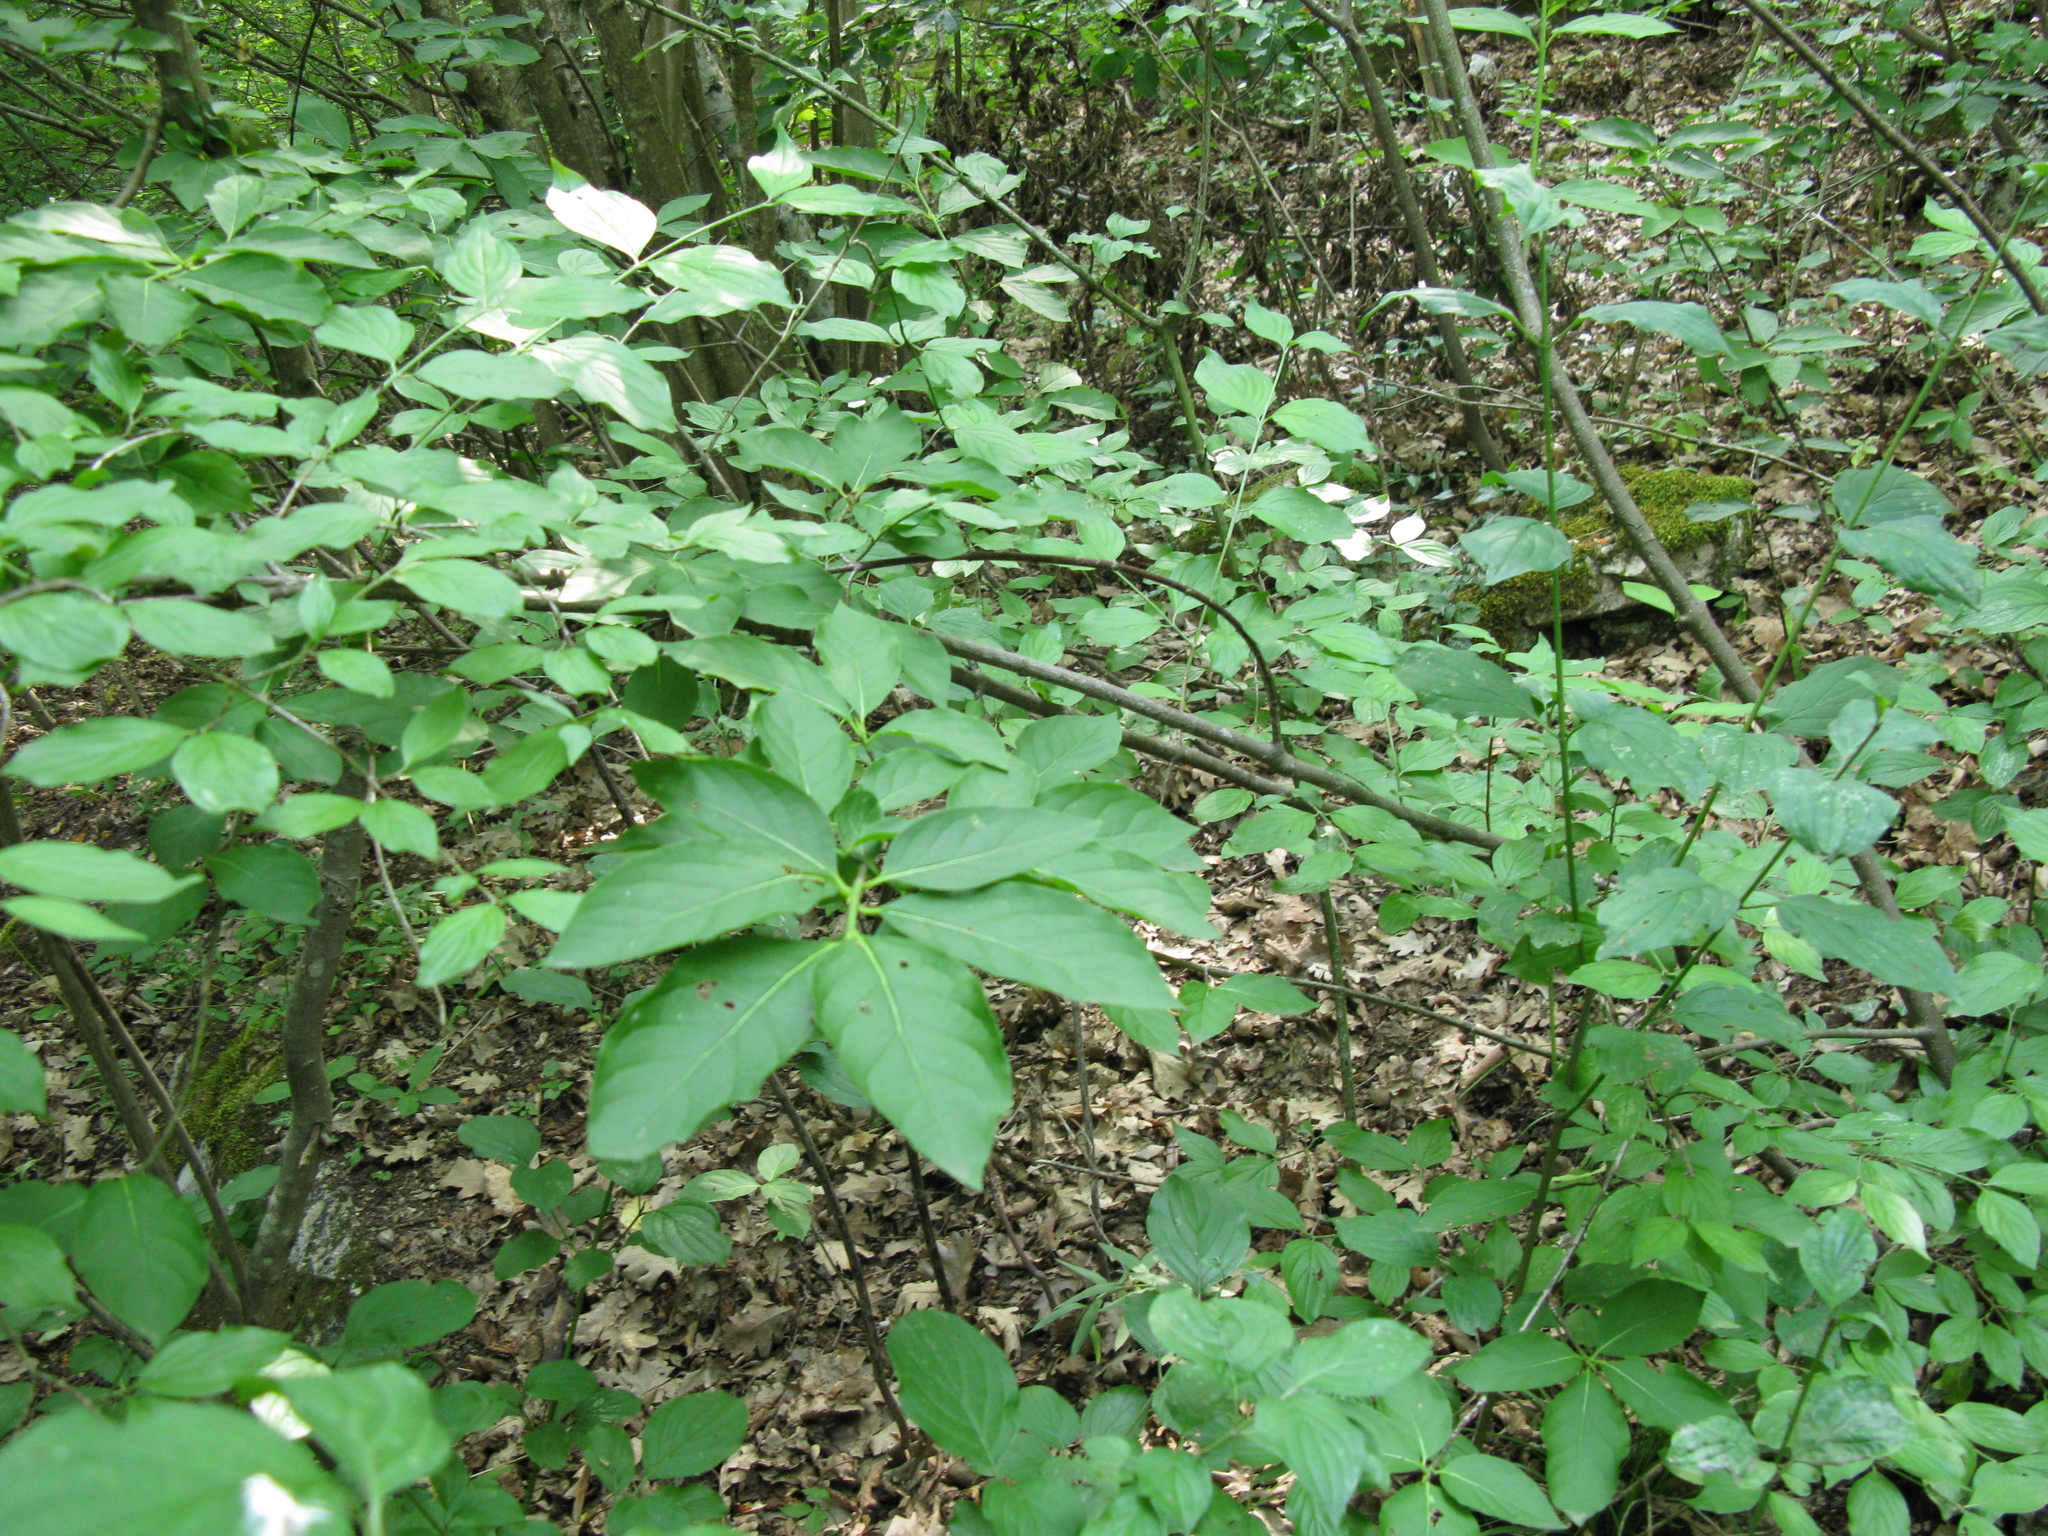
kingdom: Plantae
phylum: Tracheophyta
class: Magnoliopsida
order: Celastrales
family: Celastraceae
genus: Euonymus
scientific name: Euonymus latifolius
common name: Large-leaved spindle
